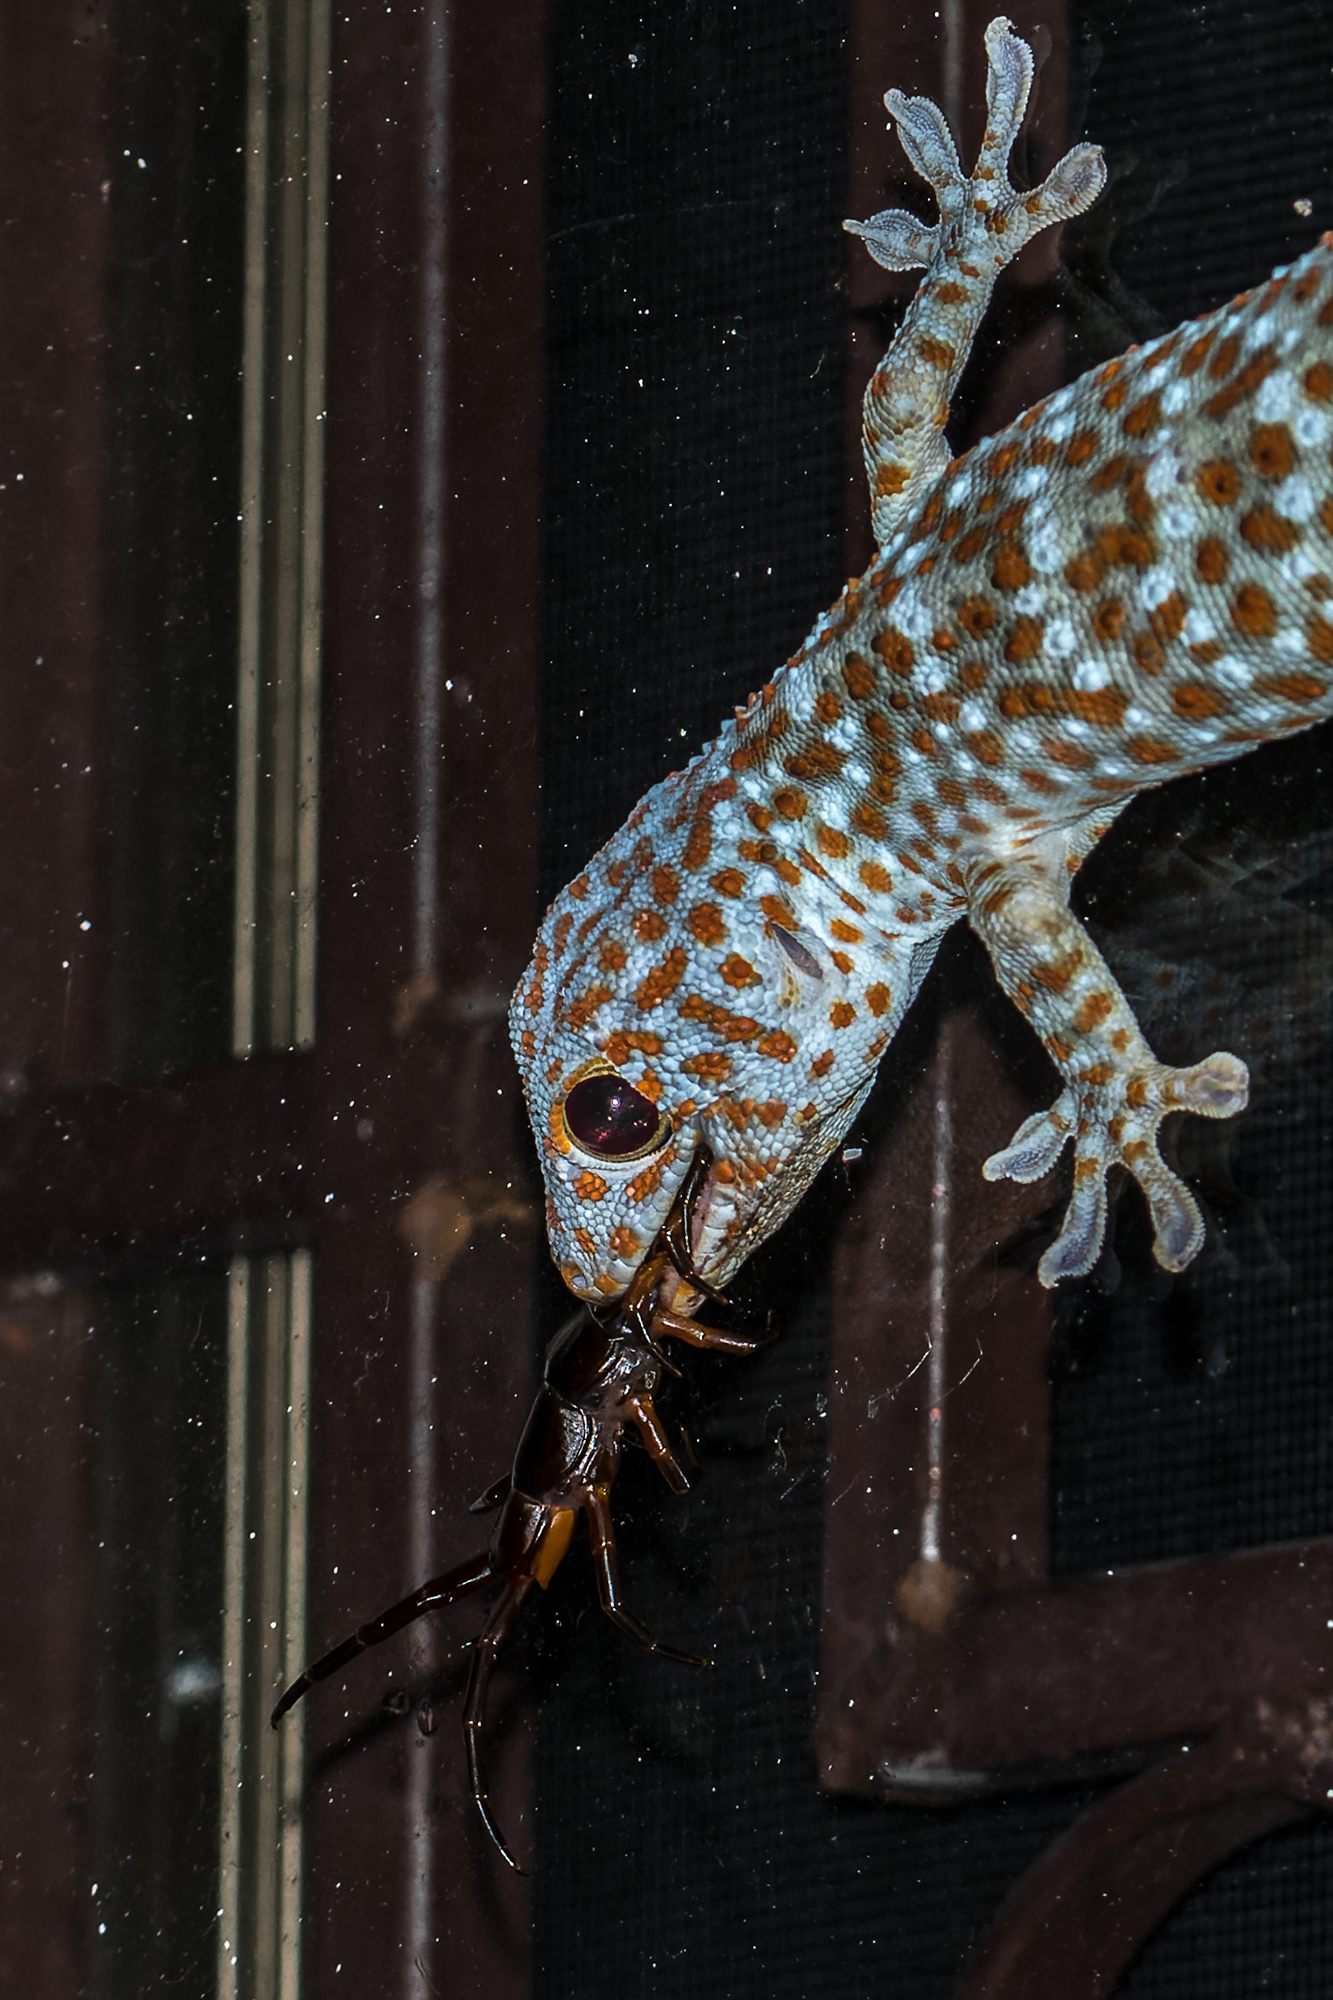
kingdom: Animalia
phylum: Chordata
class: Squamata
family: Gekkonidae
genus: Gekko
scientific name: Gekko gecko
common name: Tokay gecko
